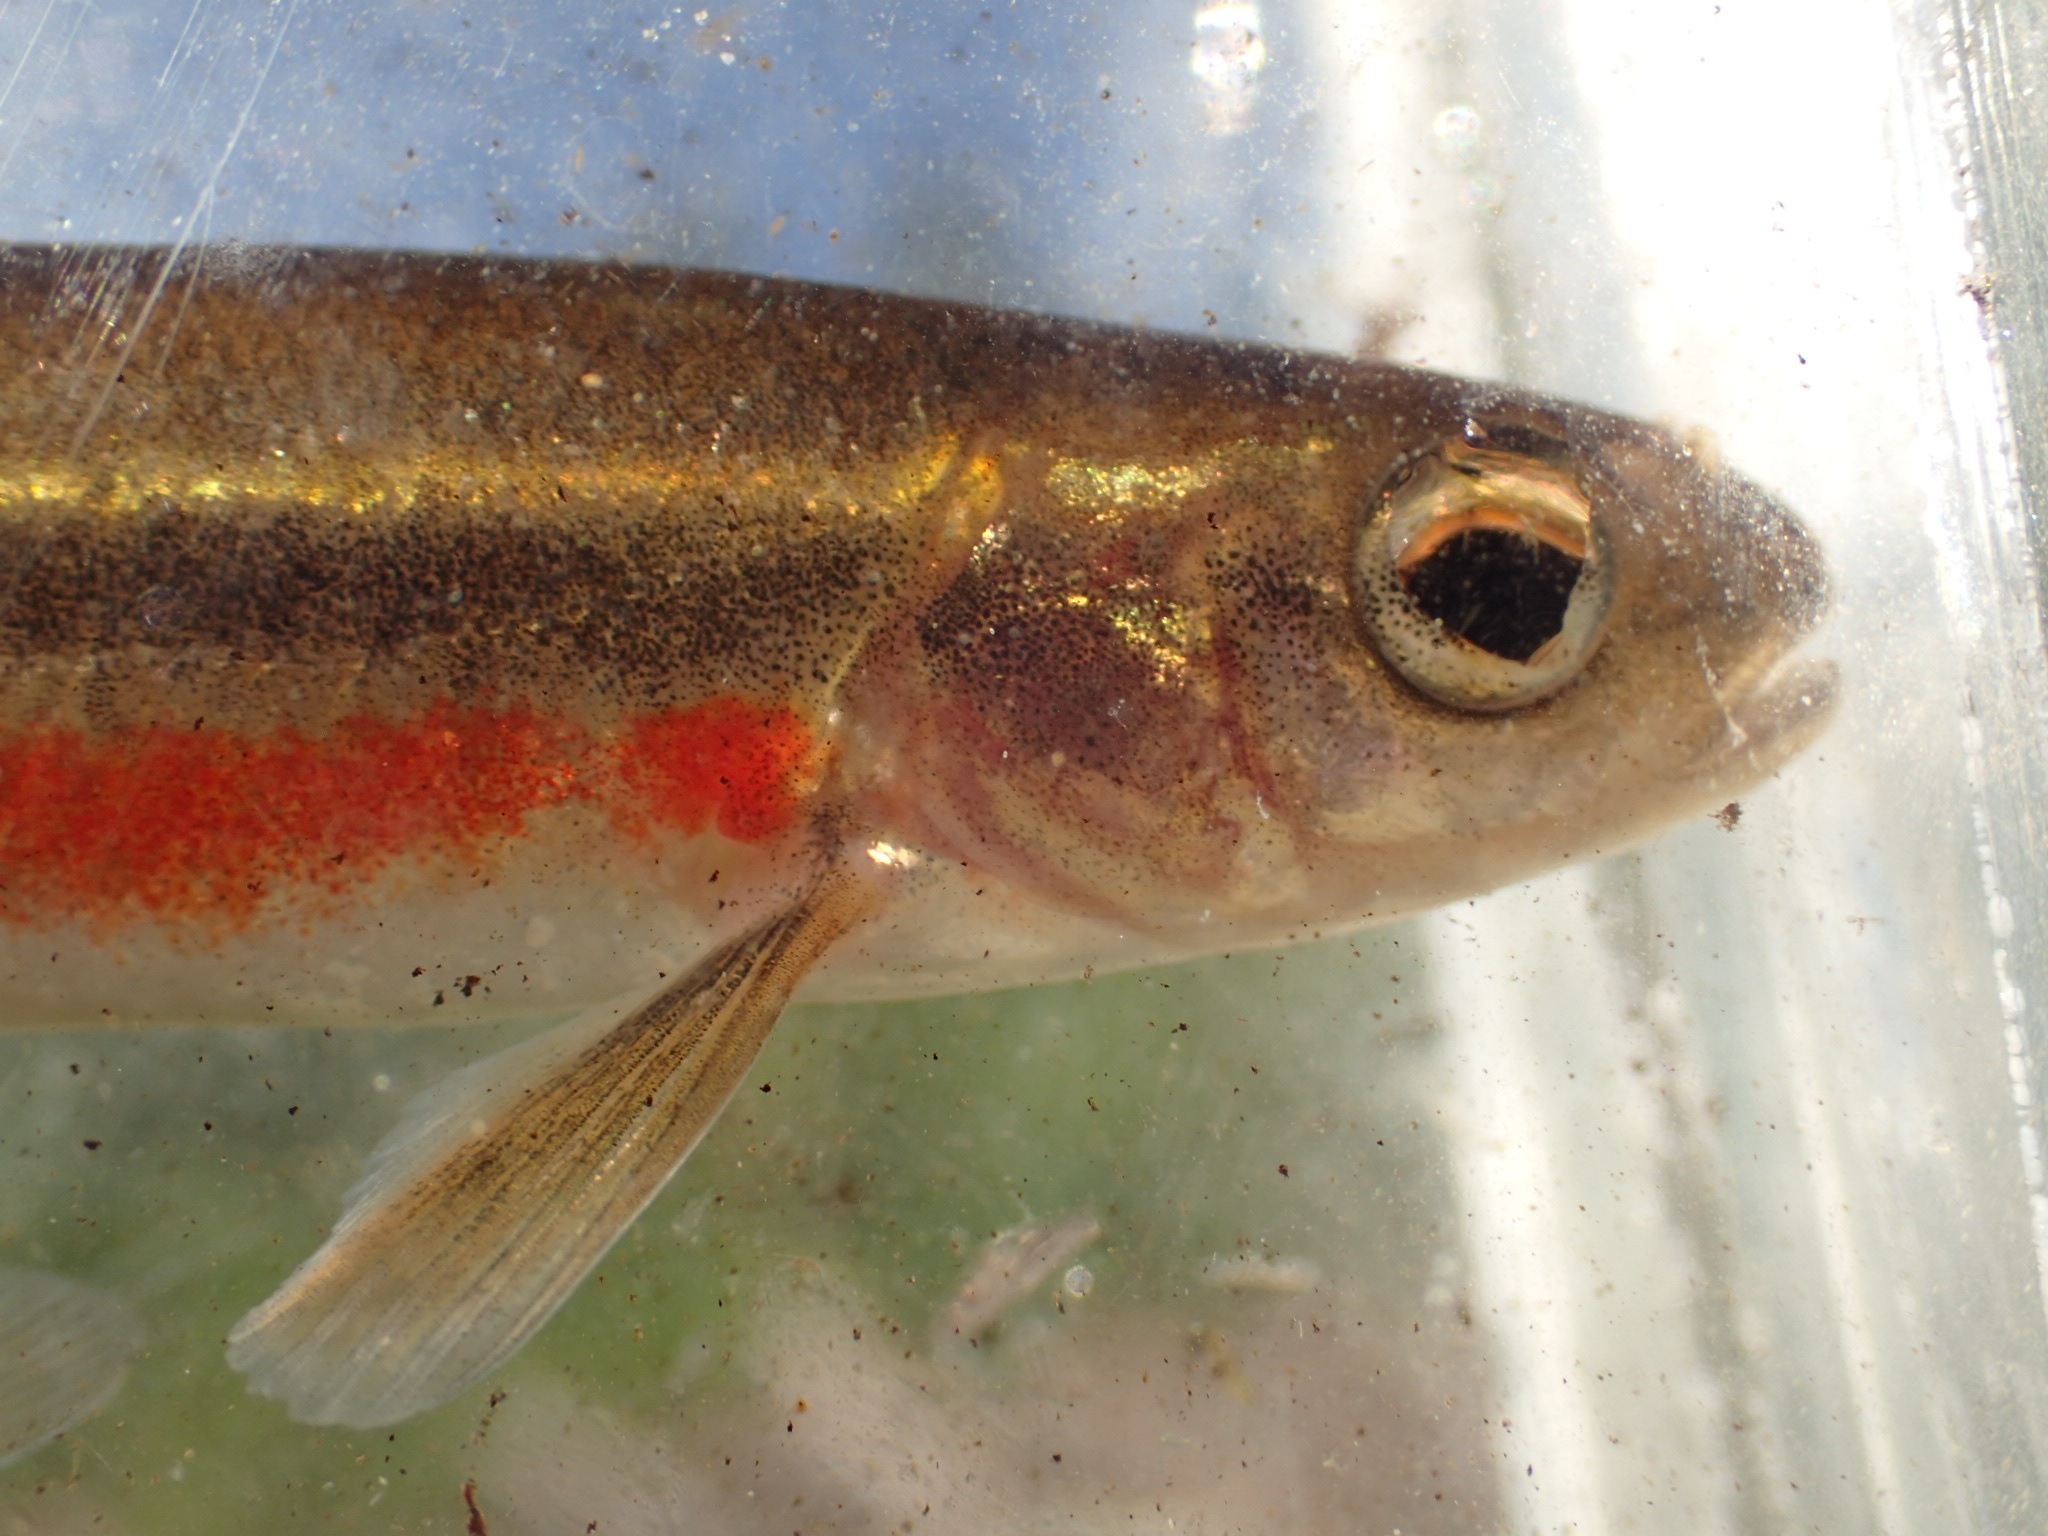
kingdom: Animalia
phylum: Chordata
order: Cypriniformes
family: Cyprinidae
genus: Margariscus
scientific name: Margariscus nachtriebi
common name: Northern pearl dace
